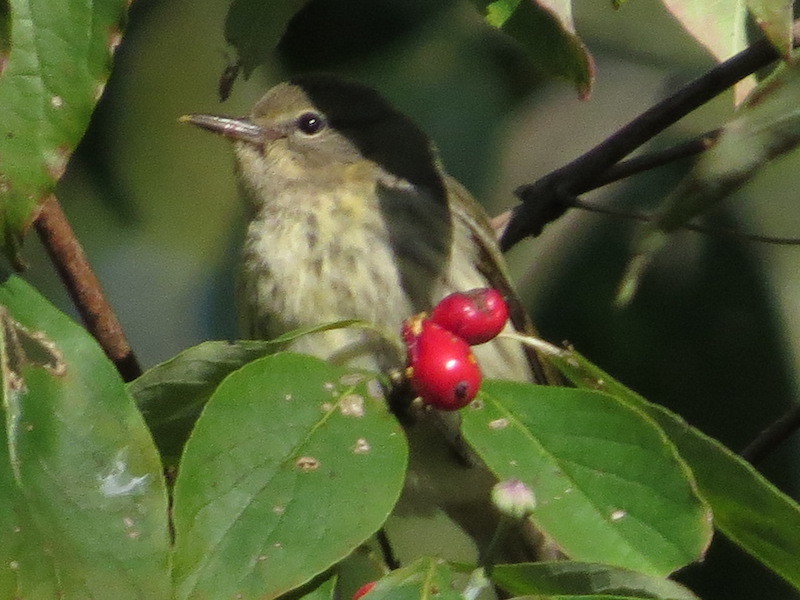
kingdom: Animalia
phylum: Chordata
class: Aves
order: Passeriformes
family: Parulidae
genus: Setophaga
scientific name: Setophaga tigrina
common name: Cape may warbler
